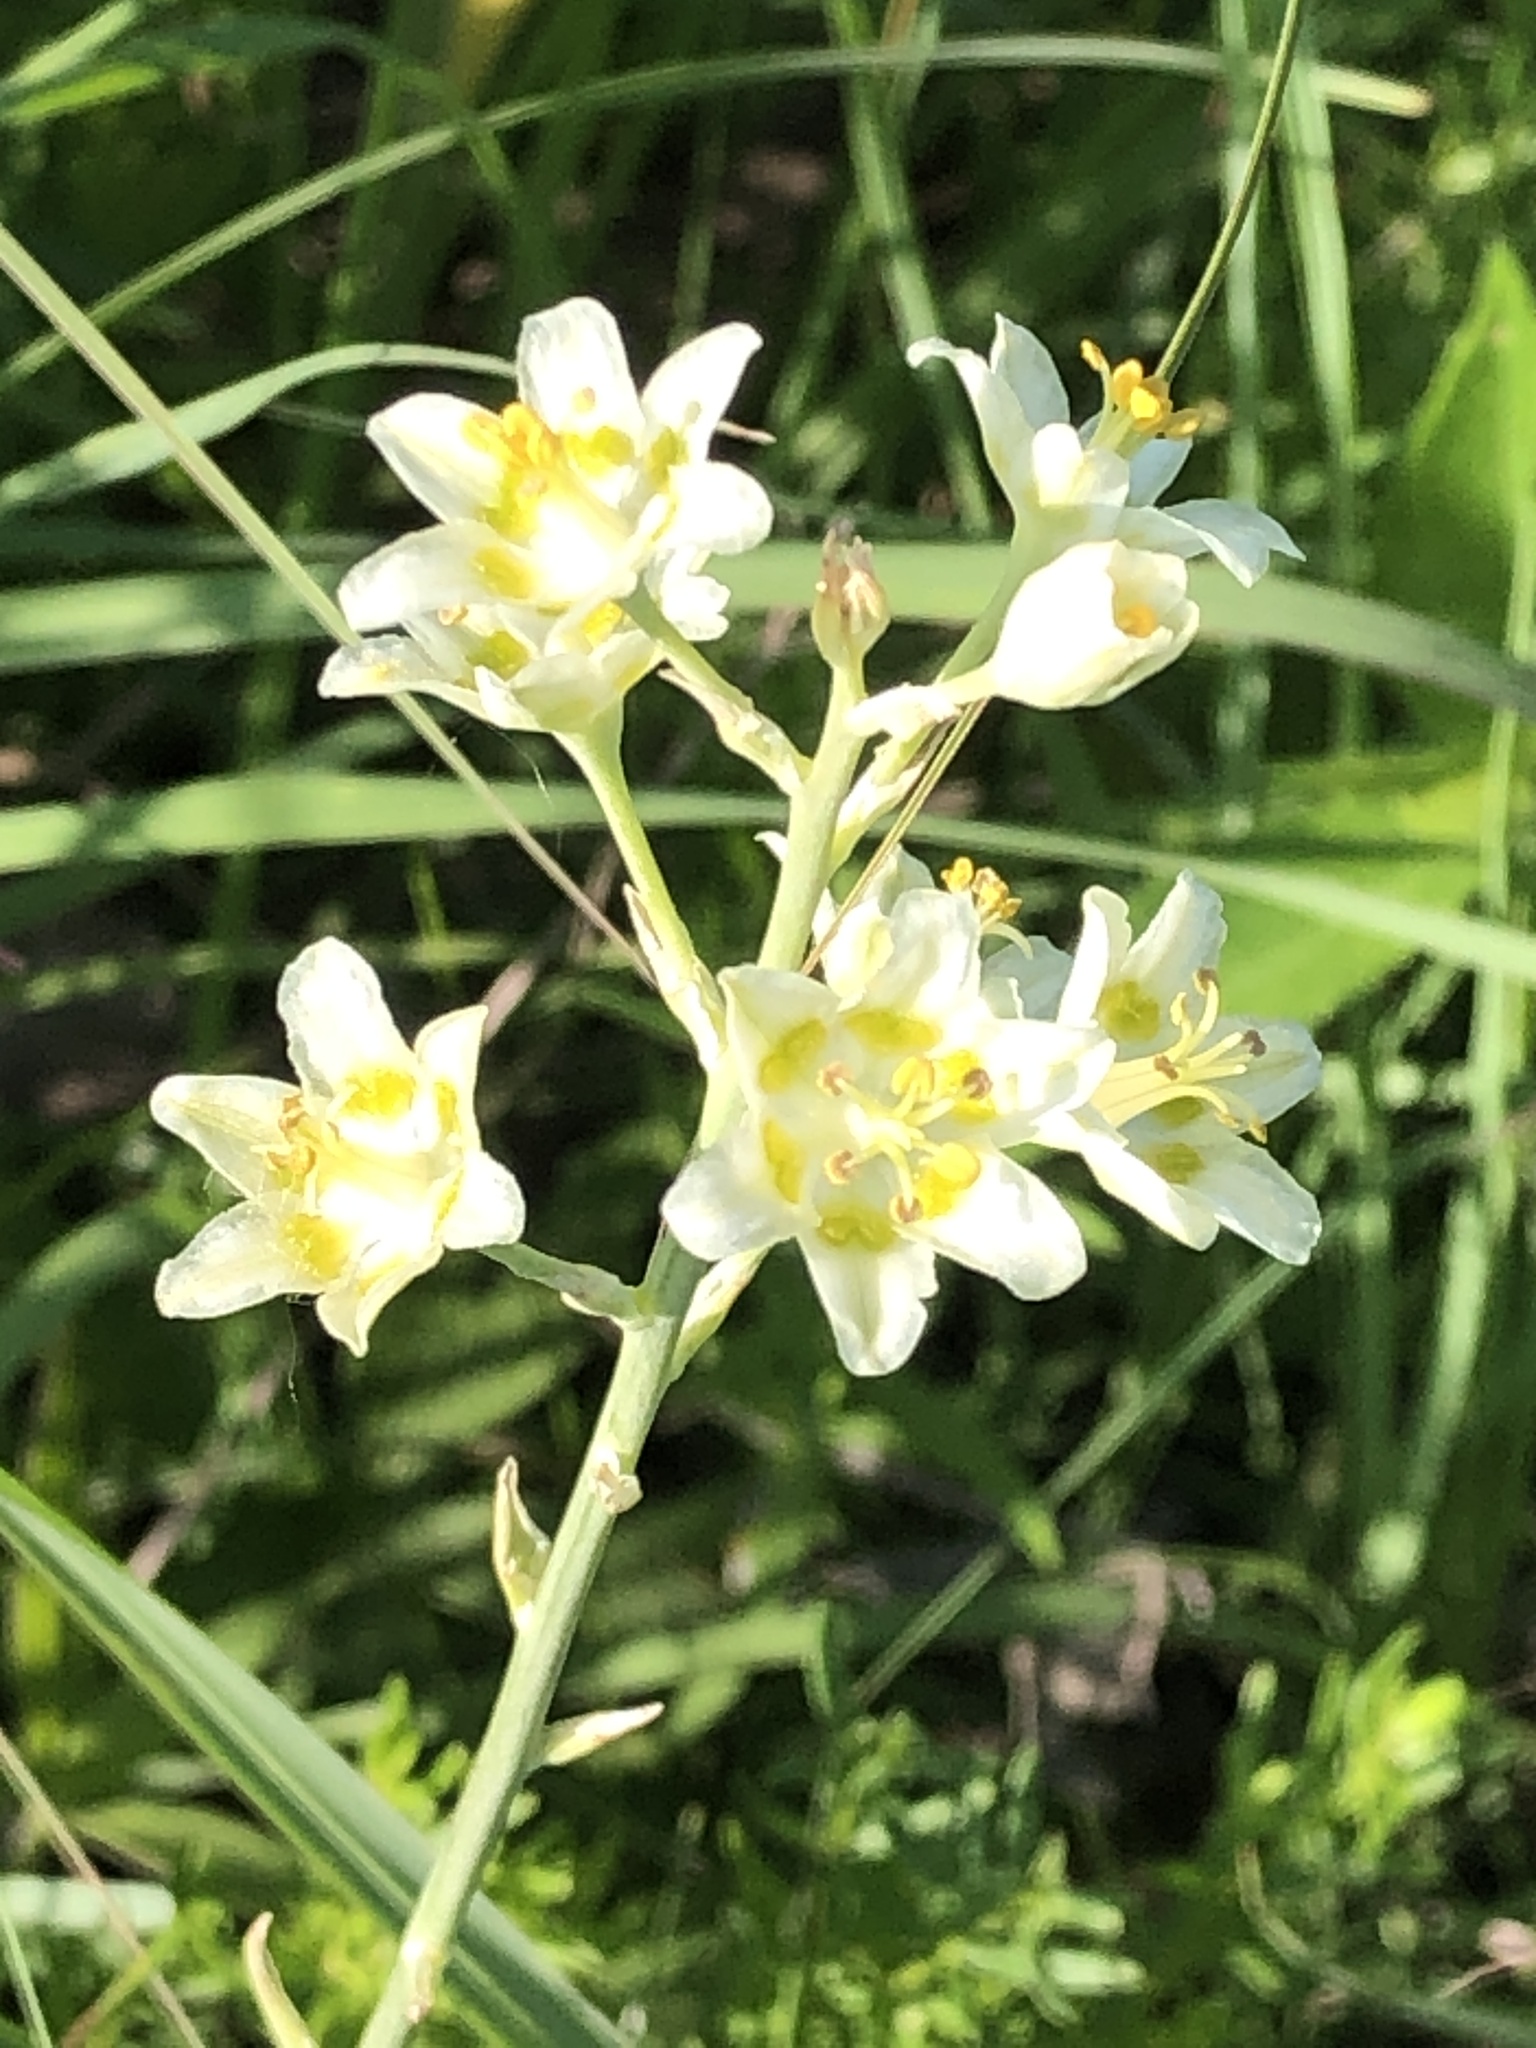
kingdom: Plantae
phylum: Tracheophyta
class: Liliopsida
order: Liliales
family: Melanthiaceae
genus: Anticlea
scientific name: Anticlea elegans
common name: Mountain death camas
